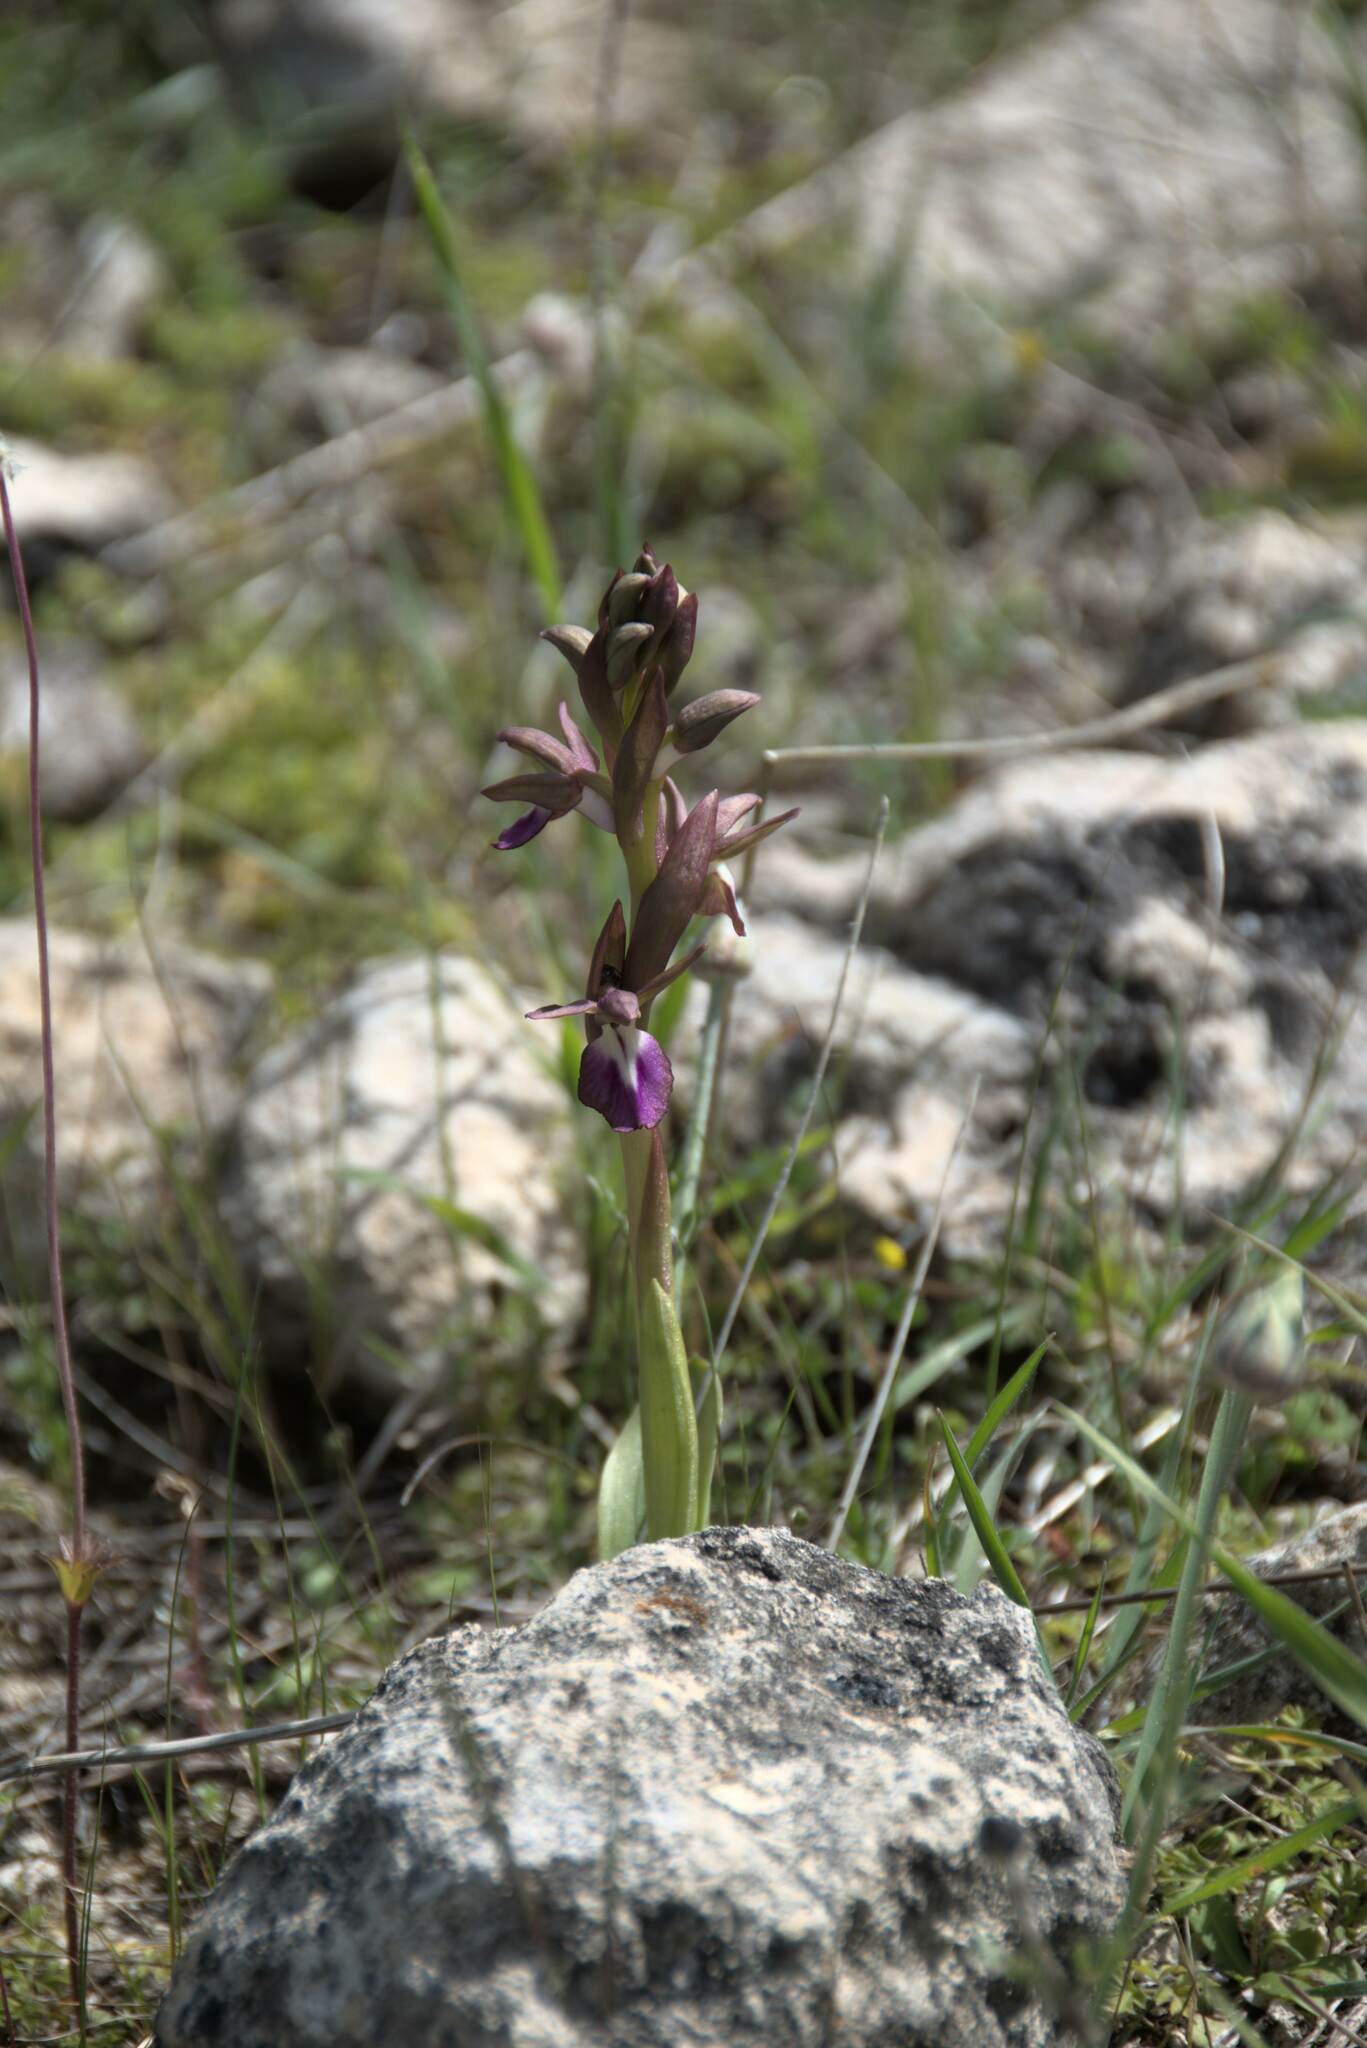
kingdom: Plantae
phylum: Tracheophyta
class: Liliopsida
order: Asparagales
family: Orchidaceae
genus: Anacamptis
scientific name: Anacamptis collina
